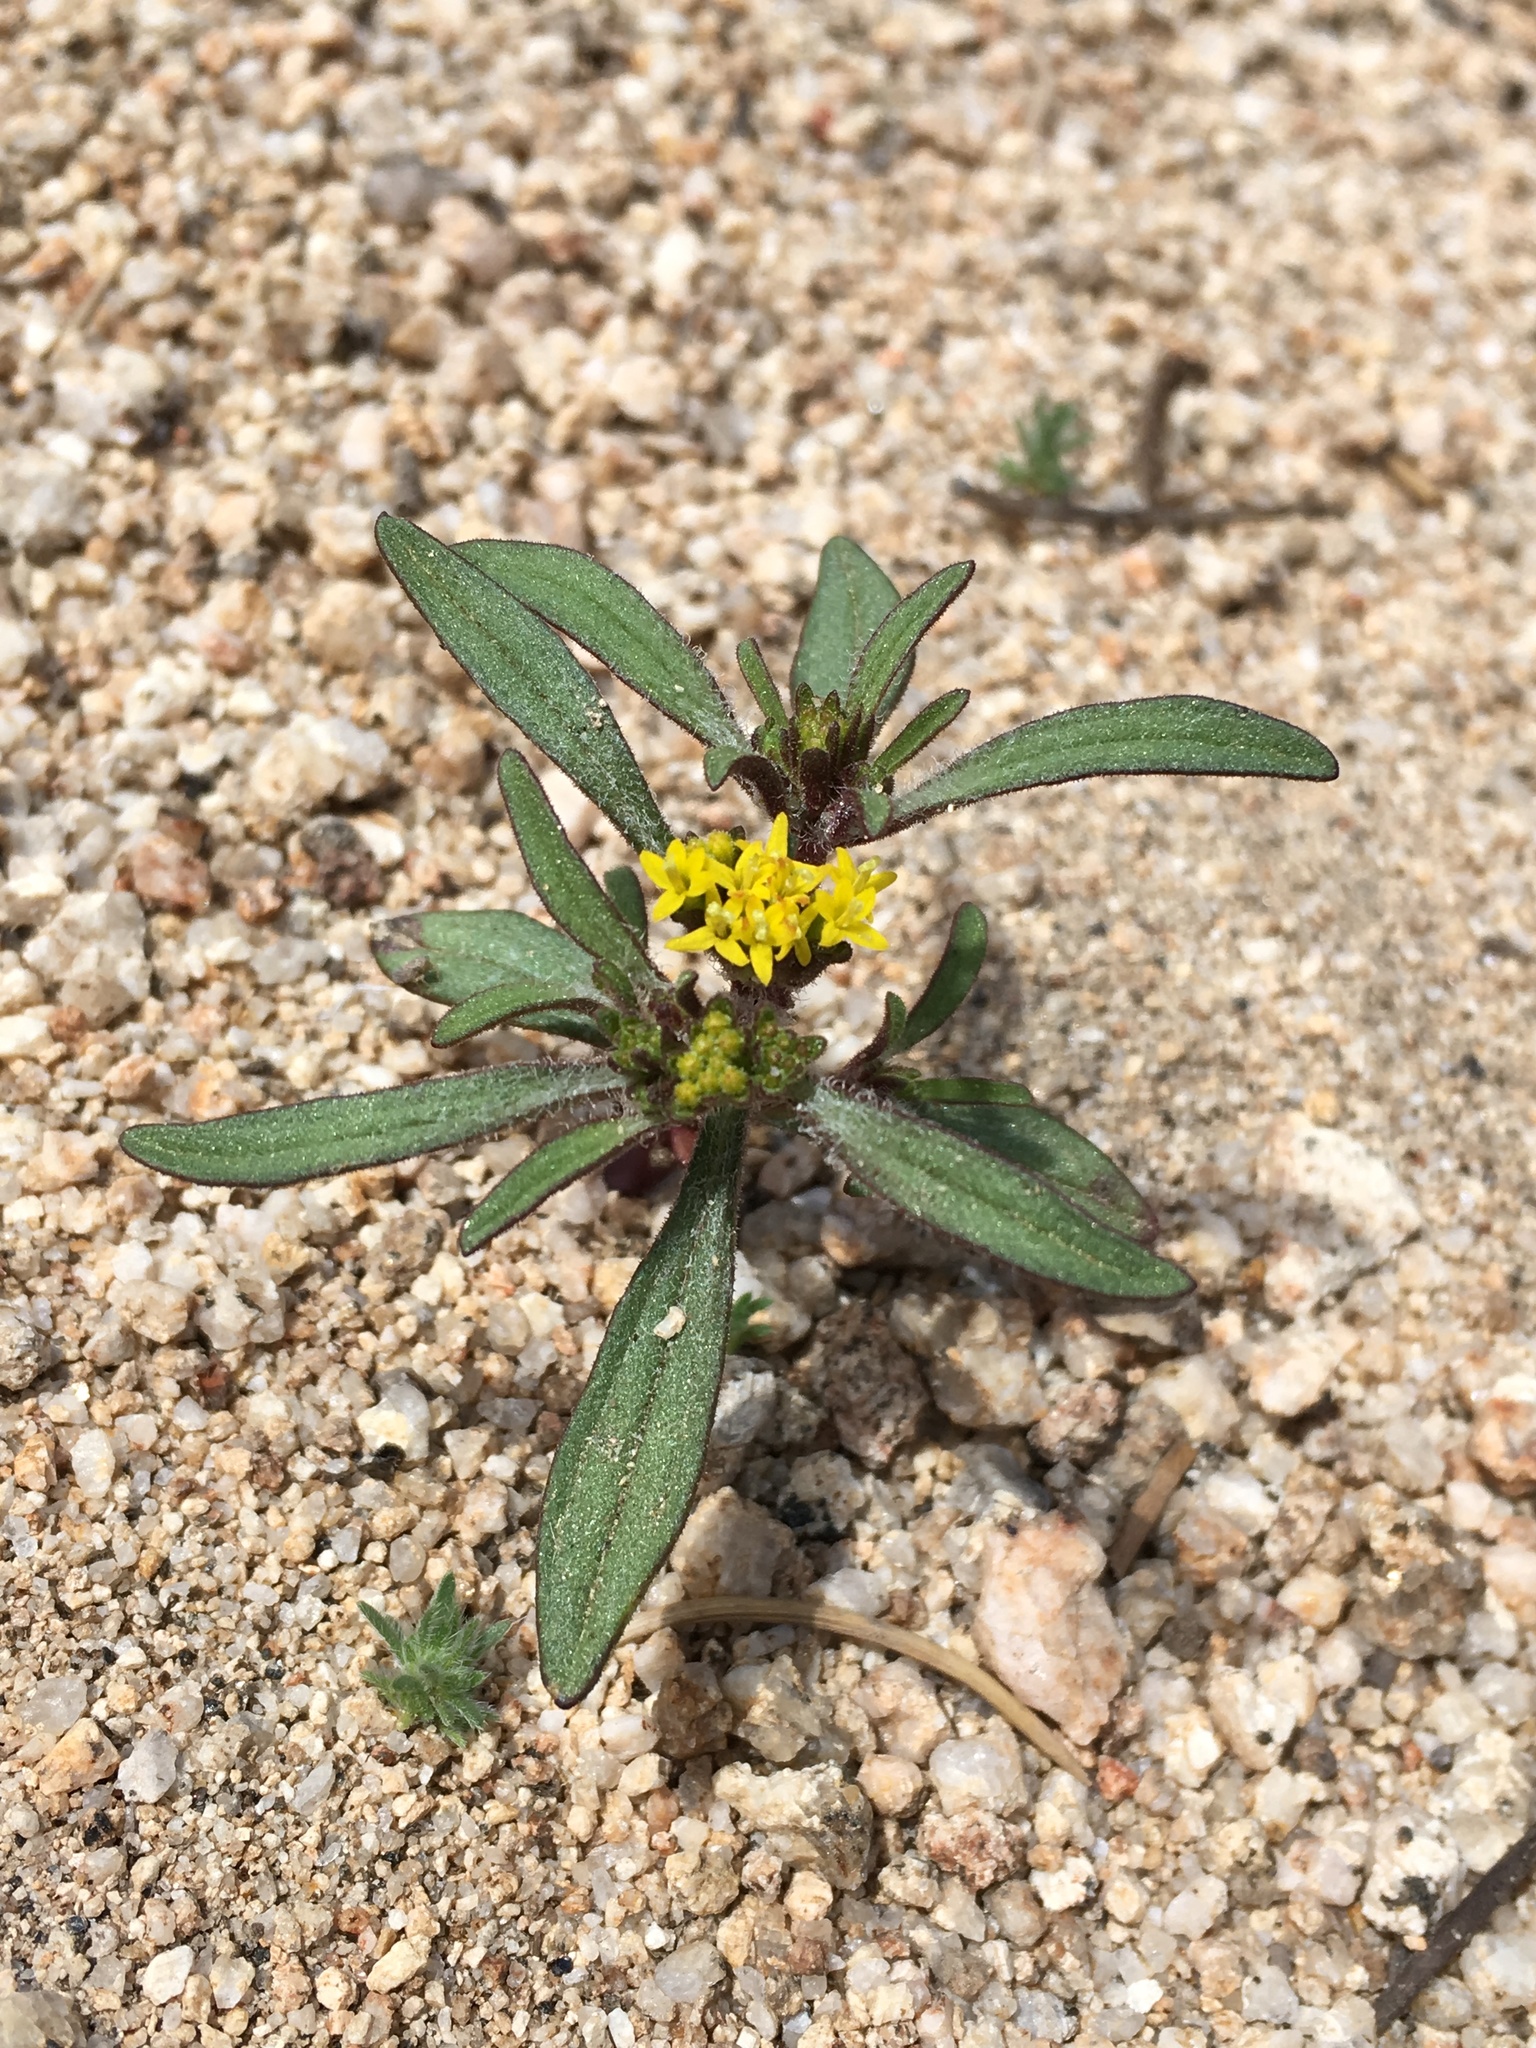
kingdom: Plantae
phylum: Tracheophyta
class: Magnoliopsida
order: Asterales
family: Asteraceae
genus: Orochaenactis
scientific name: Orochaenactis thysanocarpha
